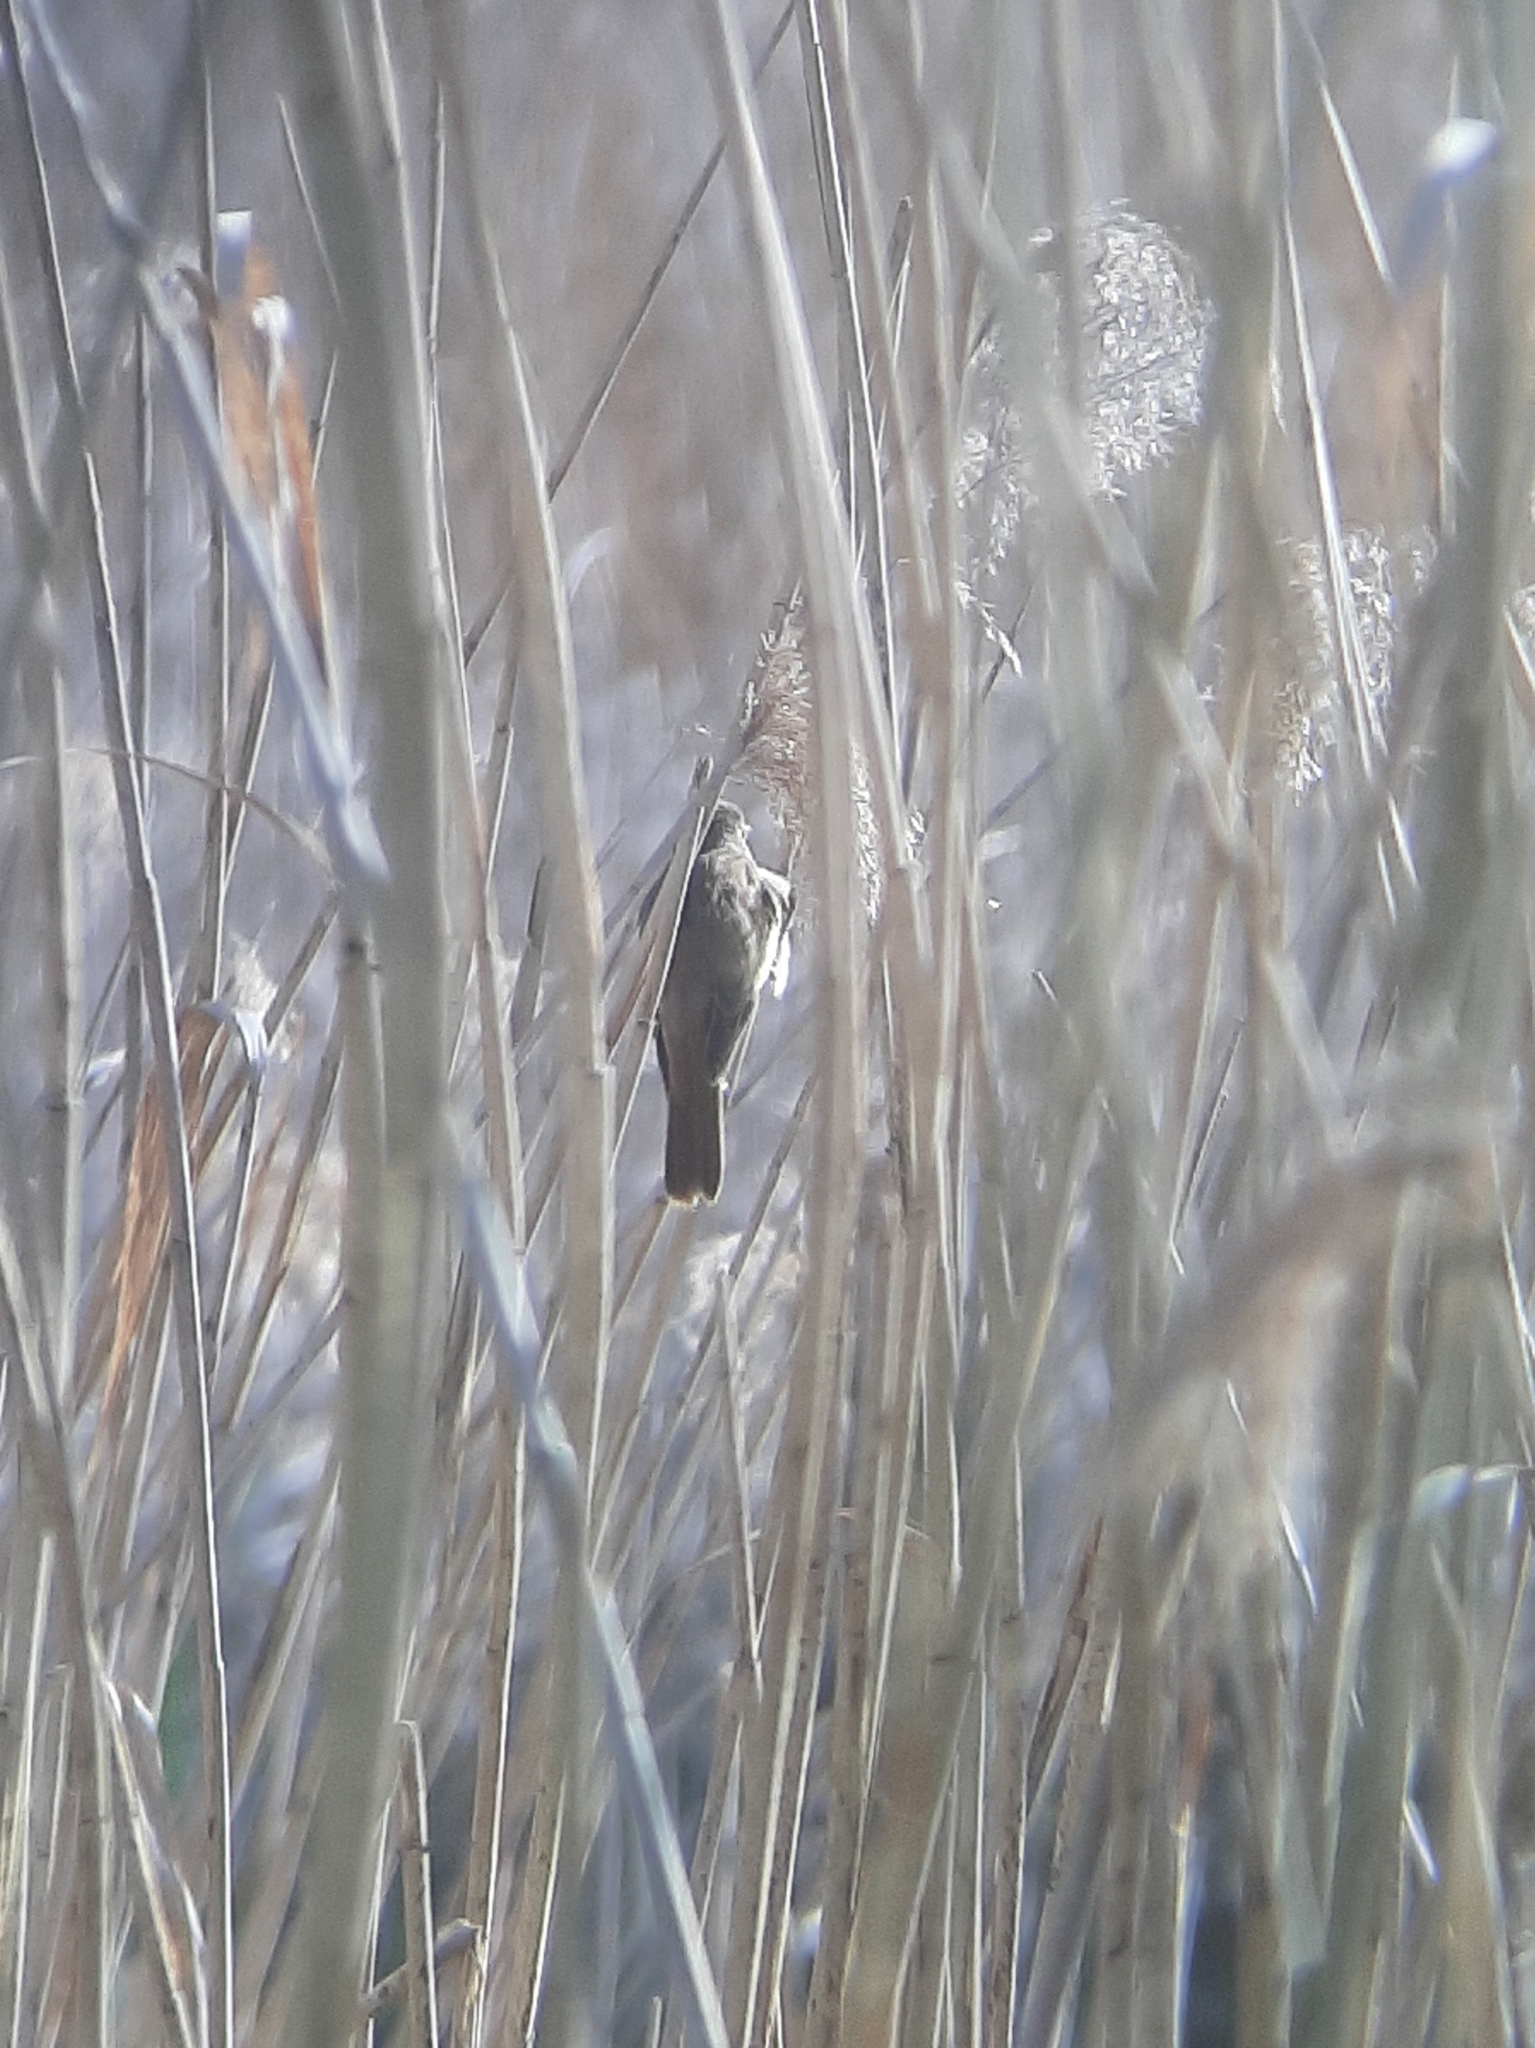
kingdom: Animalia
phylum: Chordata
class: Aves
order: Passeriformes
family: Acrocephalidae
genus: Acrocephalus
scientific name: Acrocephalus arundinaceus
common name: Great reed warbler
